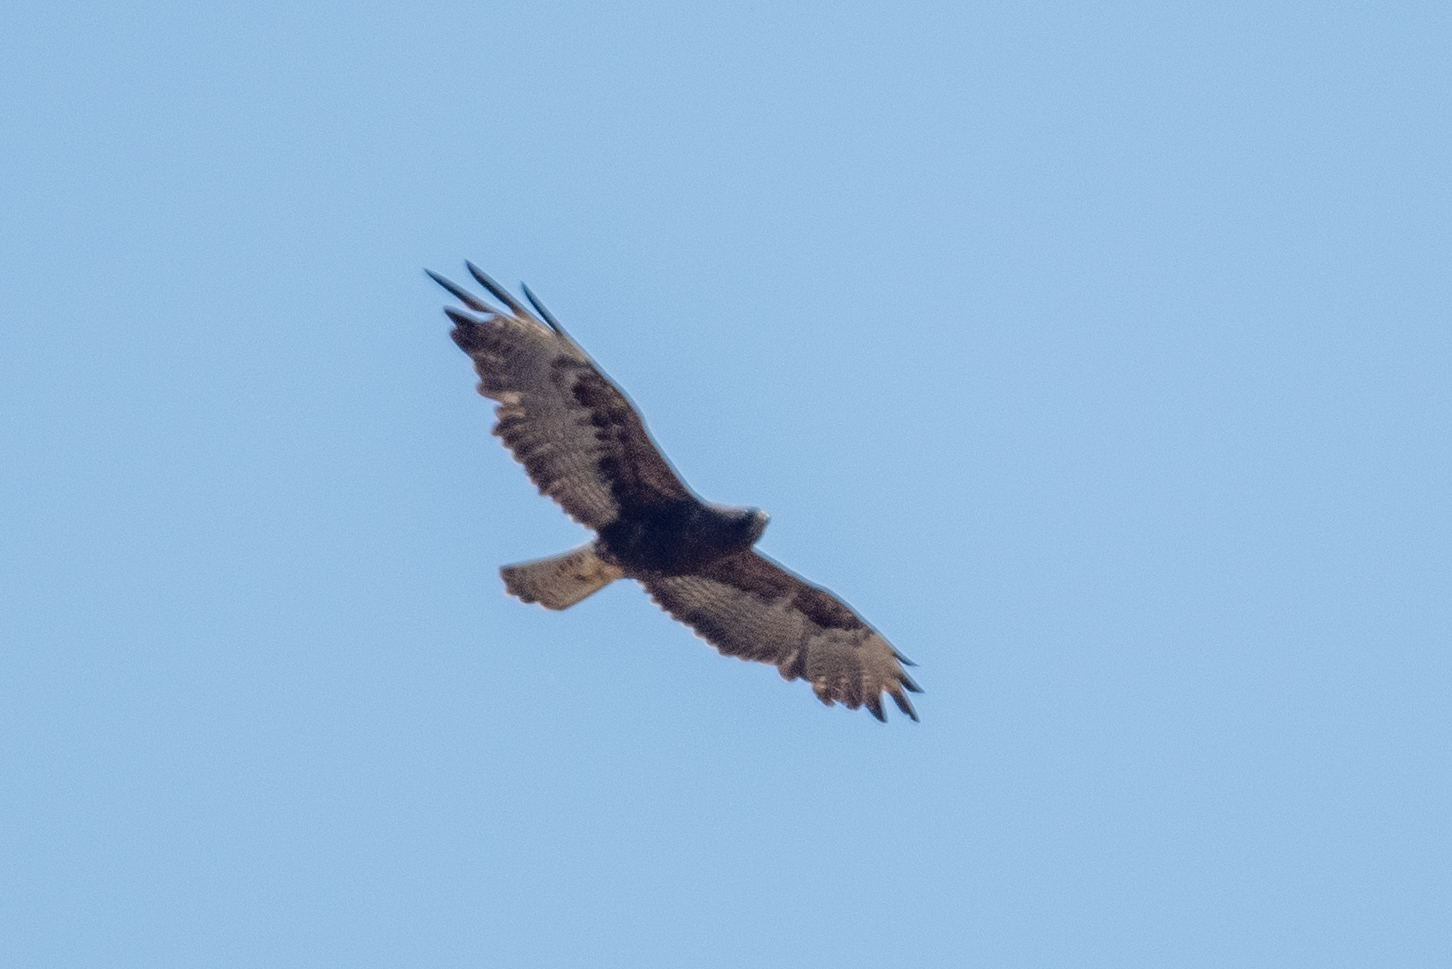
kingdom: Animalia
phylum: Chordata
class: Aves
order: Accipitriformes
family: Accipitridae
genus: Buteo
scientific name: Buteo jamaicensis
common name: Red-tailed hawk
